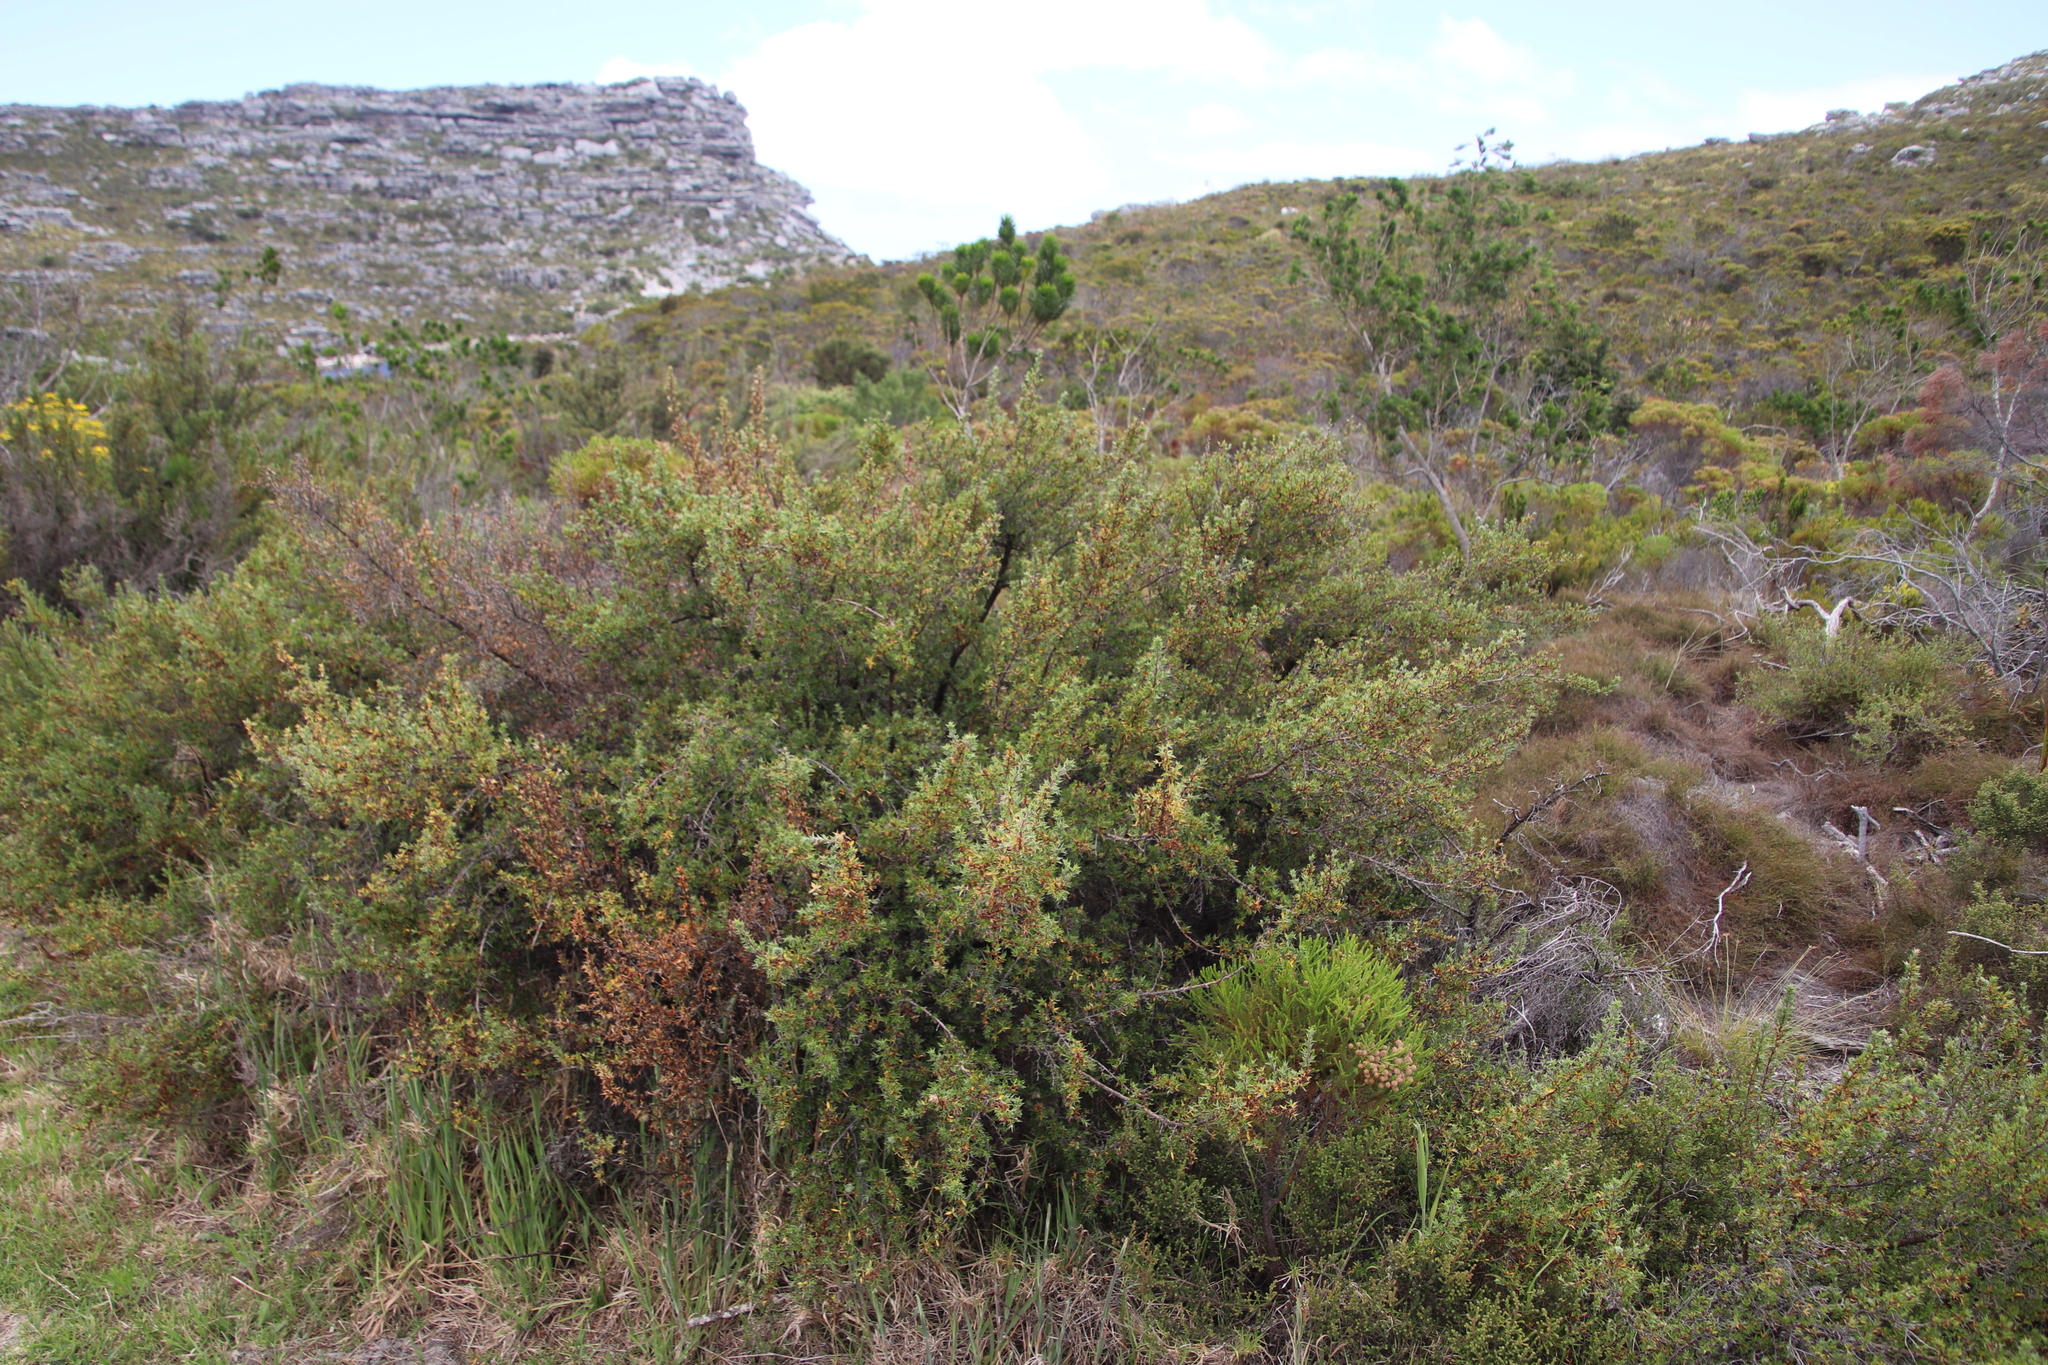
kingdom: Plantae
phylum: Tracheophyta
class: Magnoliopsida
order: Rosales
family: Rosaceae
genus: Cliffortia
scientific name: Cliffortia tridentata
